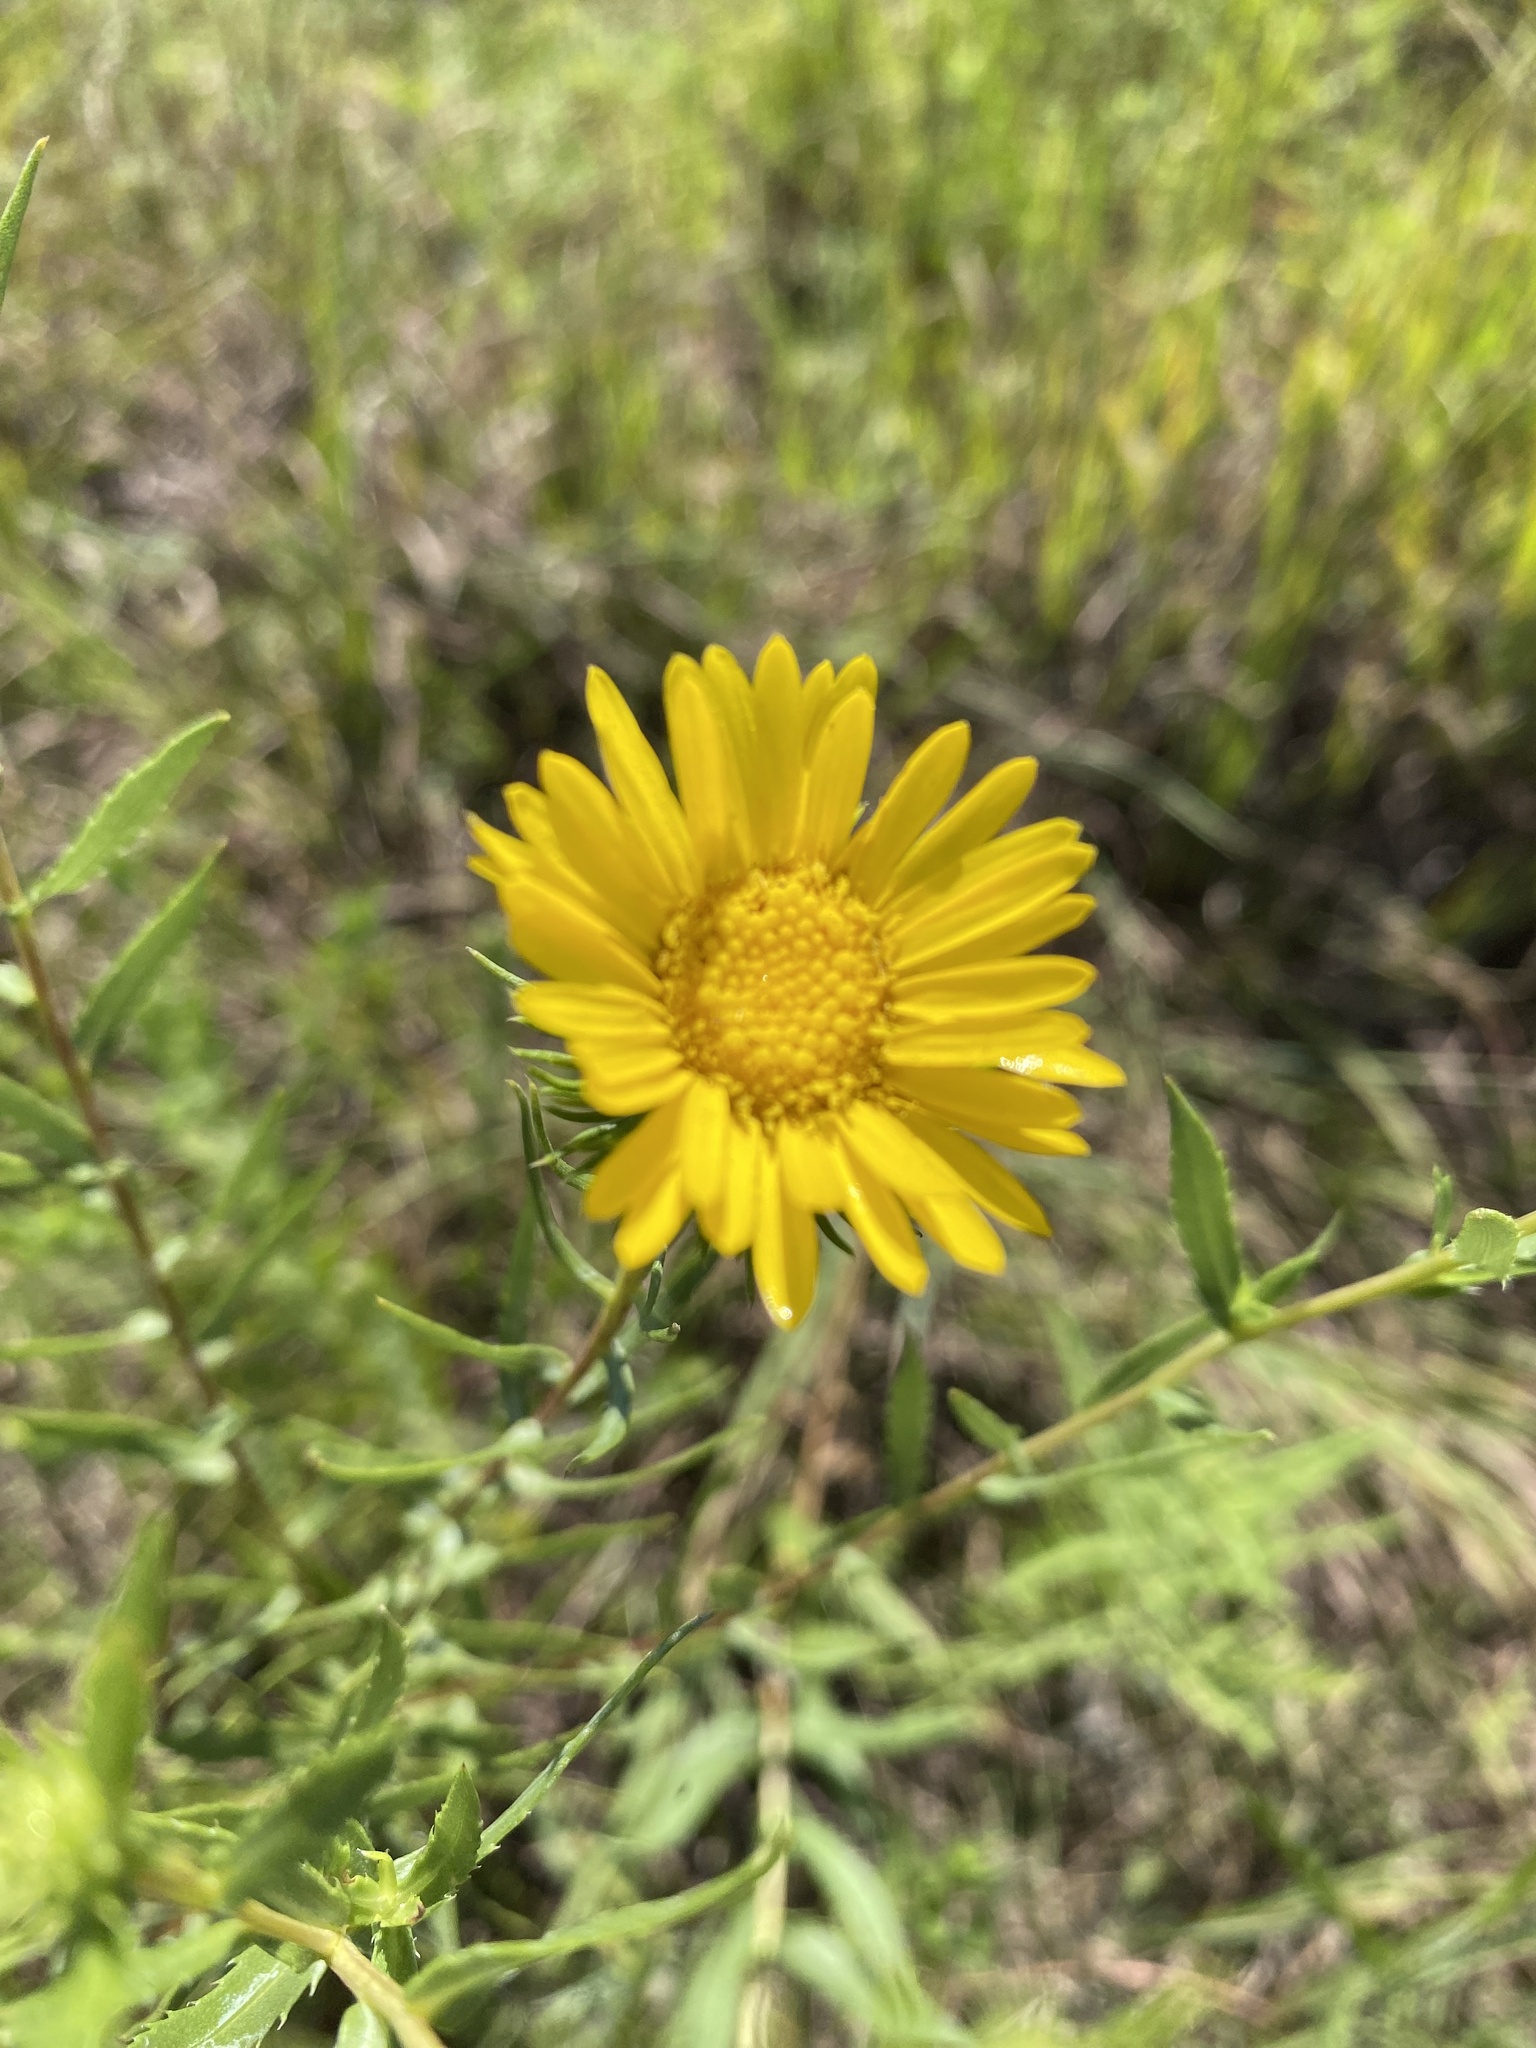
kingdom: Plantae
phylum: Tracheophyta
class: Magnoliopsida
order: Asterales
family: Asteraceae
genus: Grindelia
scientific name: Grindelia lanceolata
